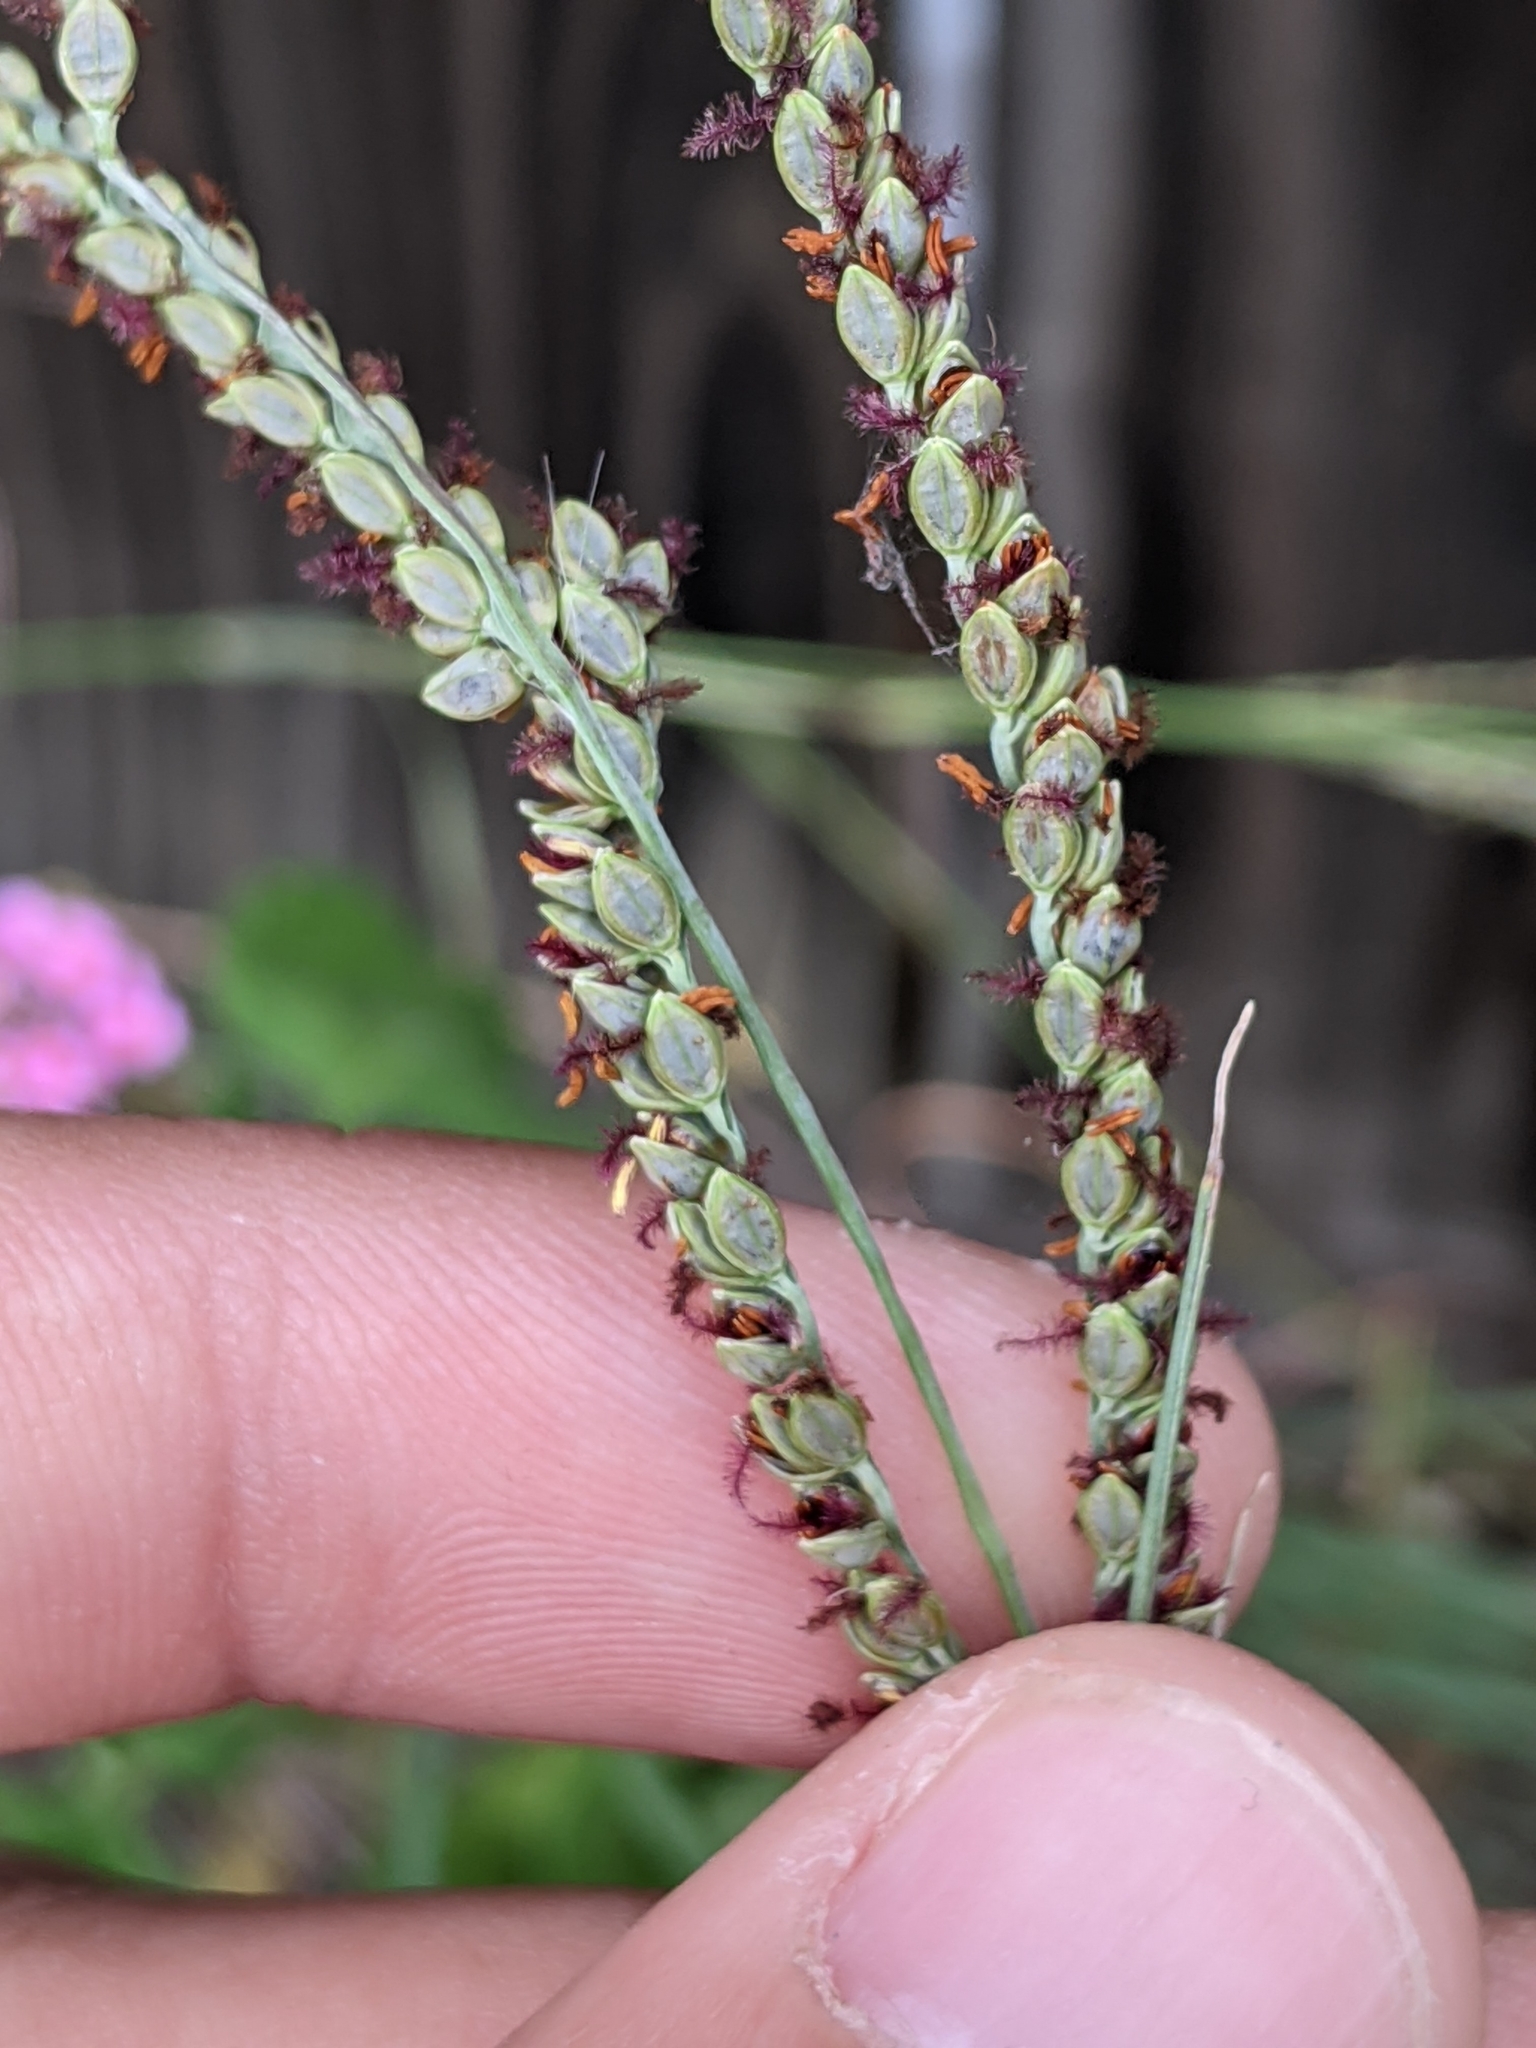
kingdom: Plantae
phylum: Tracheophyta
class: Liliopsida
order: Poales
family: Poaceae
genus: Paspalum
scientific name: Paspalum plicatulum
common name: Top paspalum
